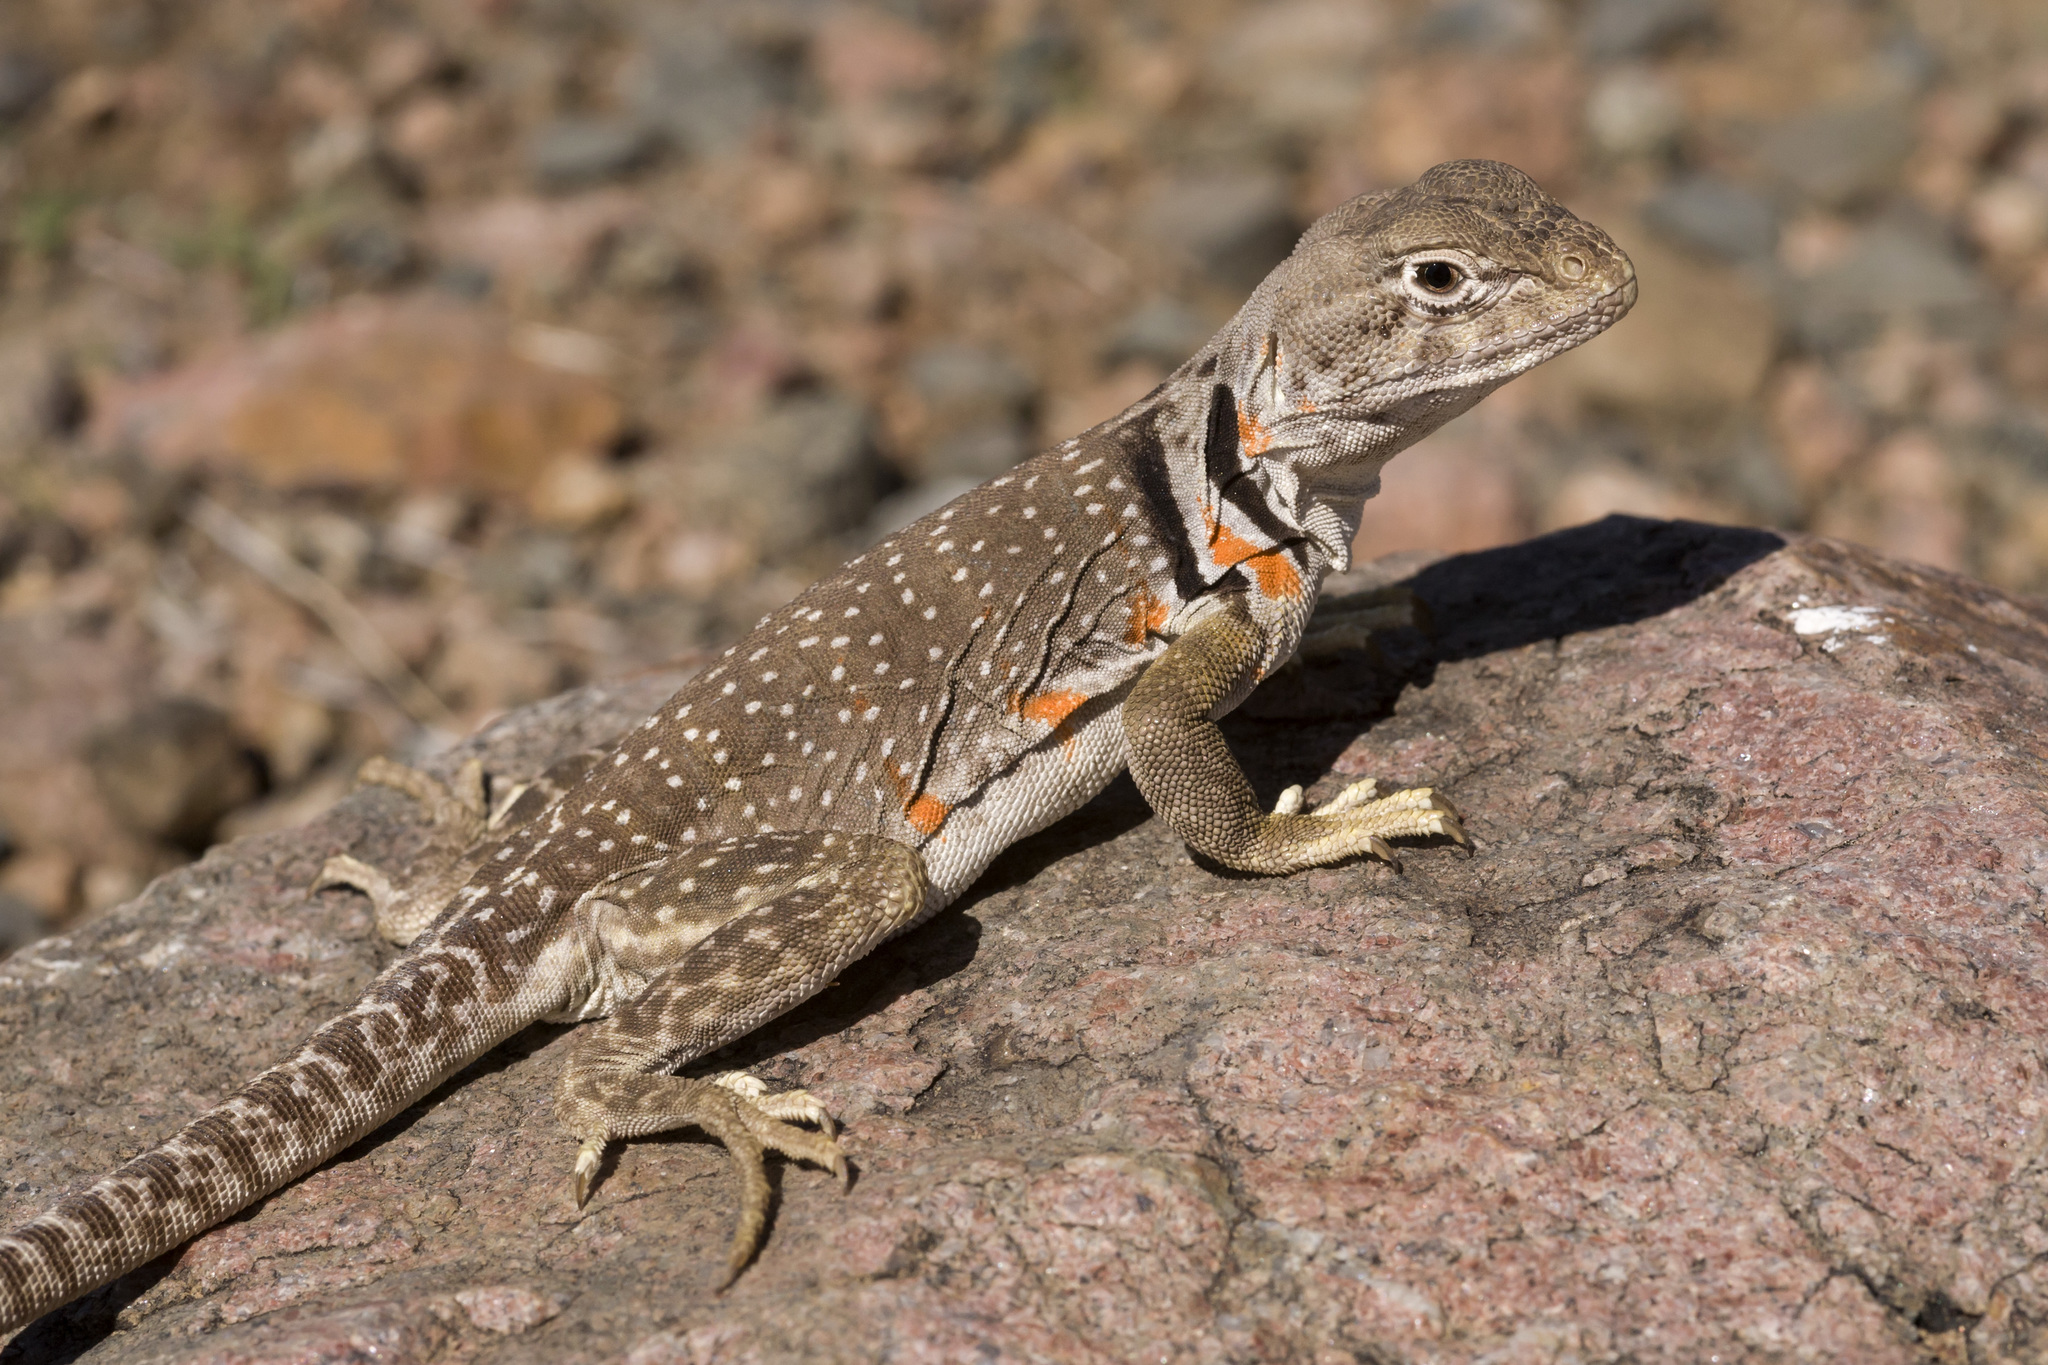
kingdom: Animalia
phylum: Chordata
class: Squamata
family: Crotaphytidae
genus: Crotaphytus
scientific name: Crotaphytus collaris
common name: Collared lizard
